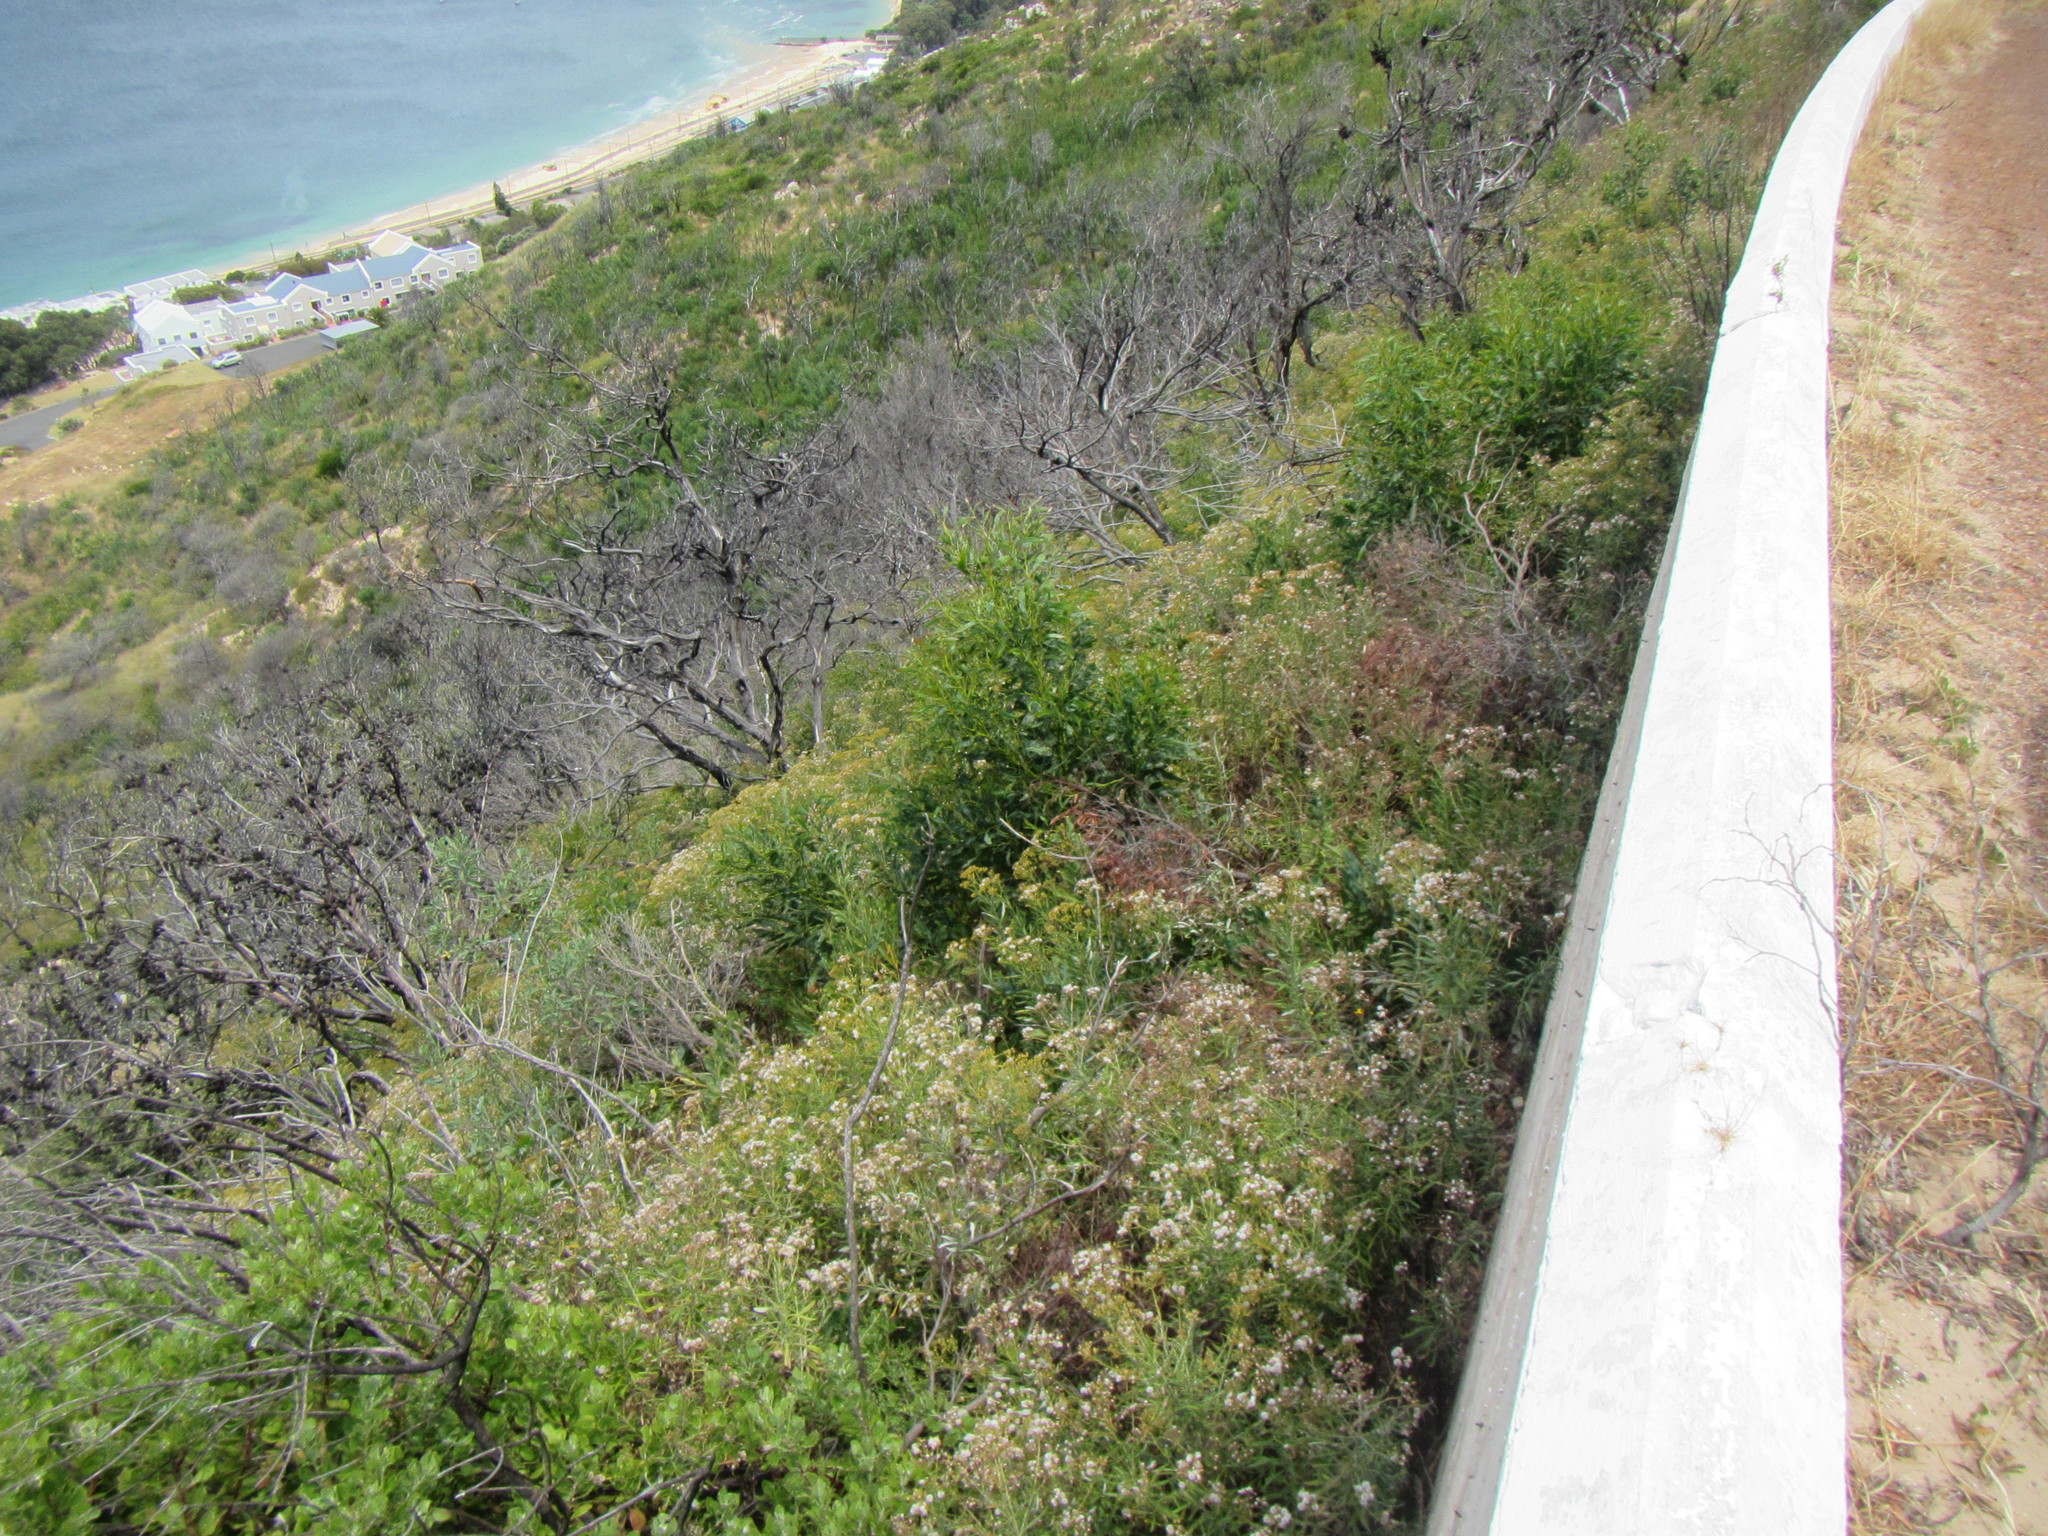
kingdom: Plantae
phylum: Tracheophyta
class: Magnoliopsida
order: Asterales
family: Asteraceae
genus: Senecio
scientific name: Senecio pterophorus
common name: Shoddy ragwort
